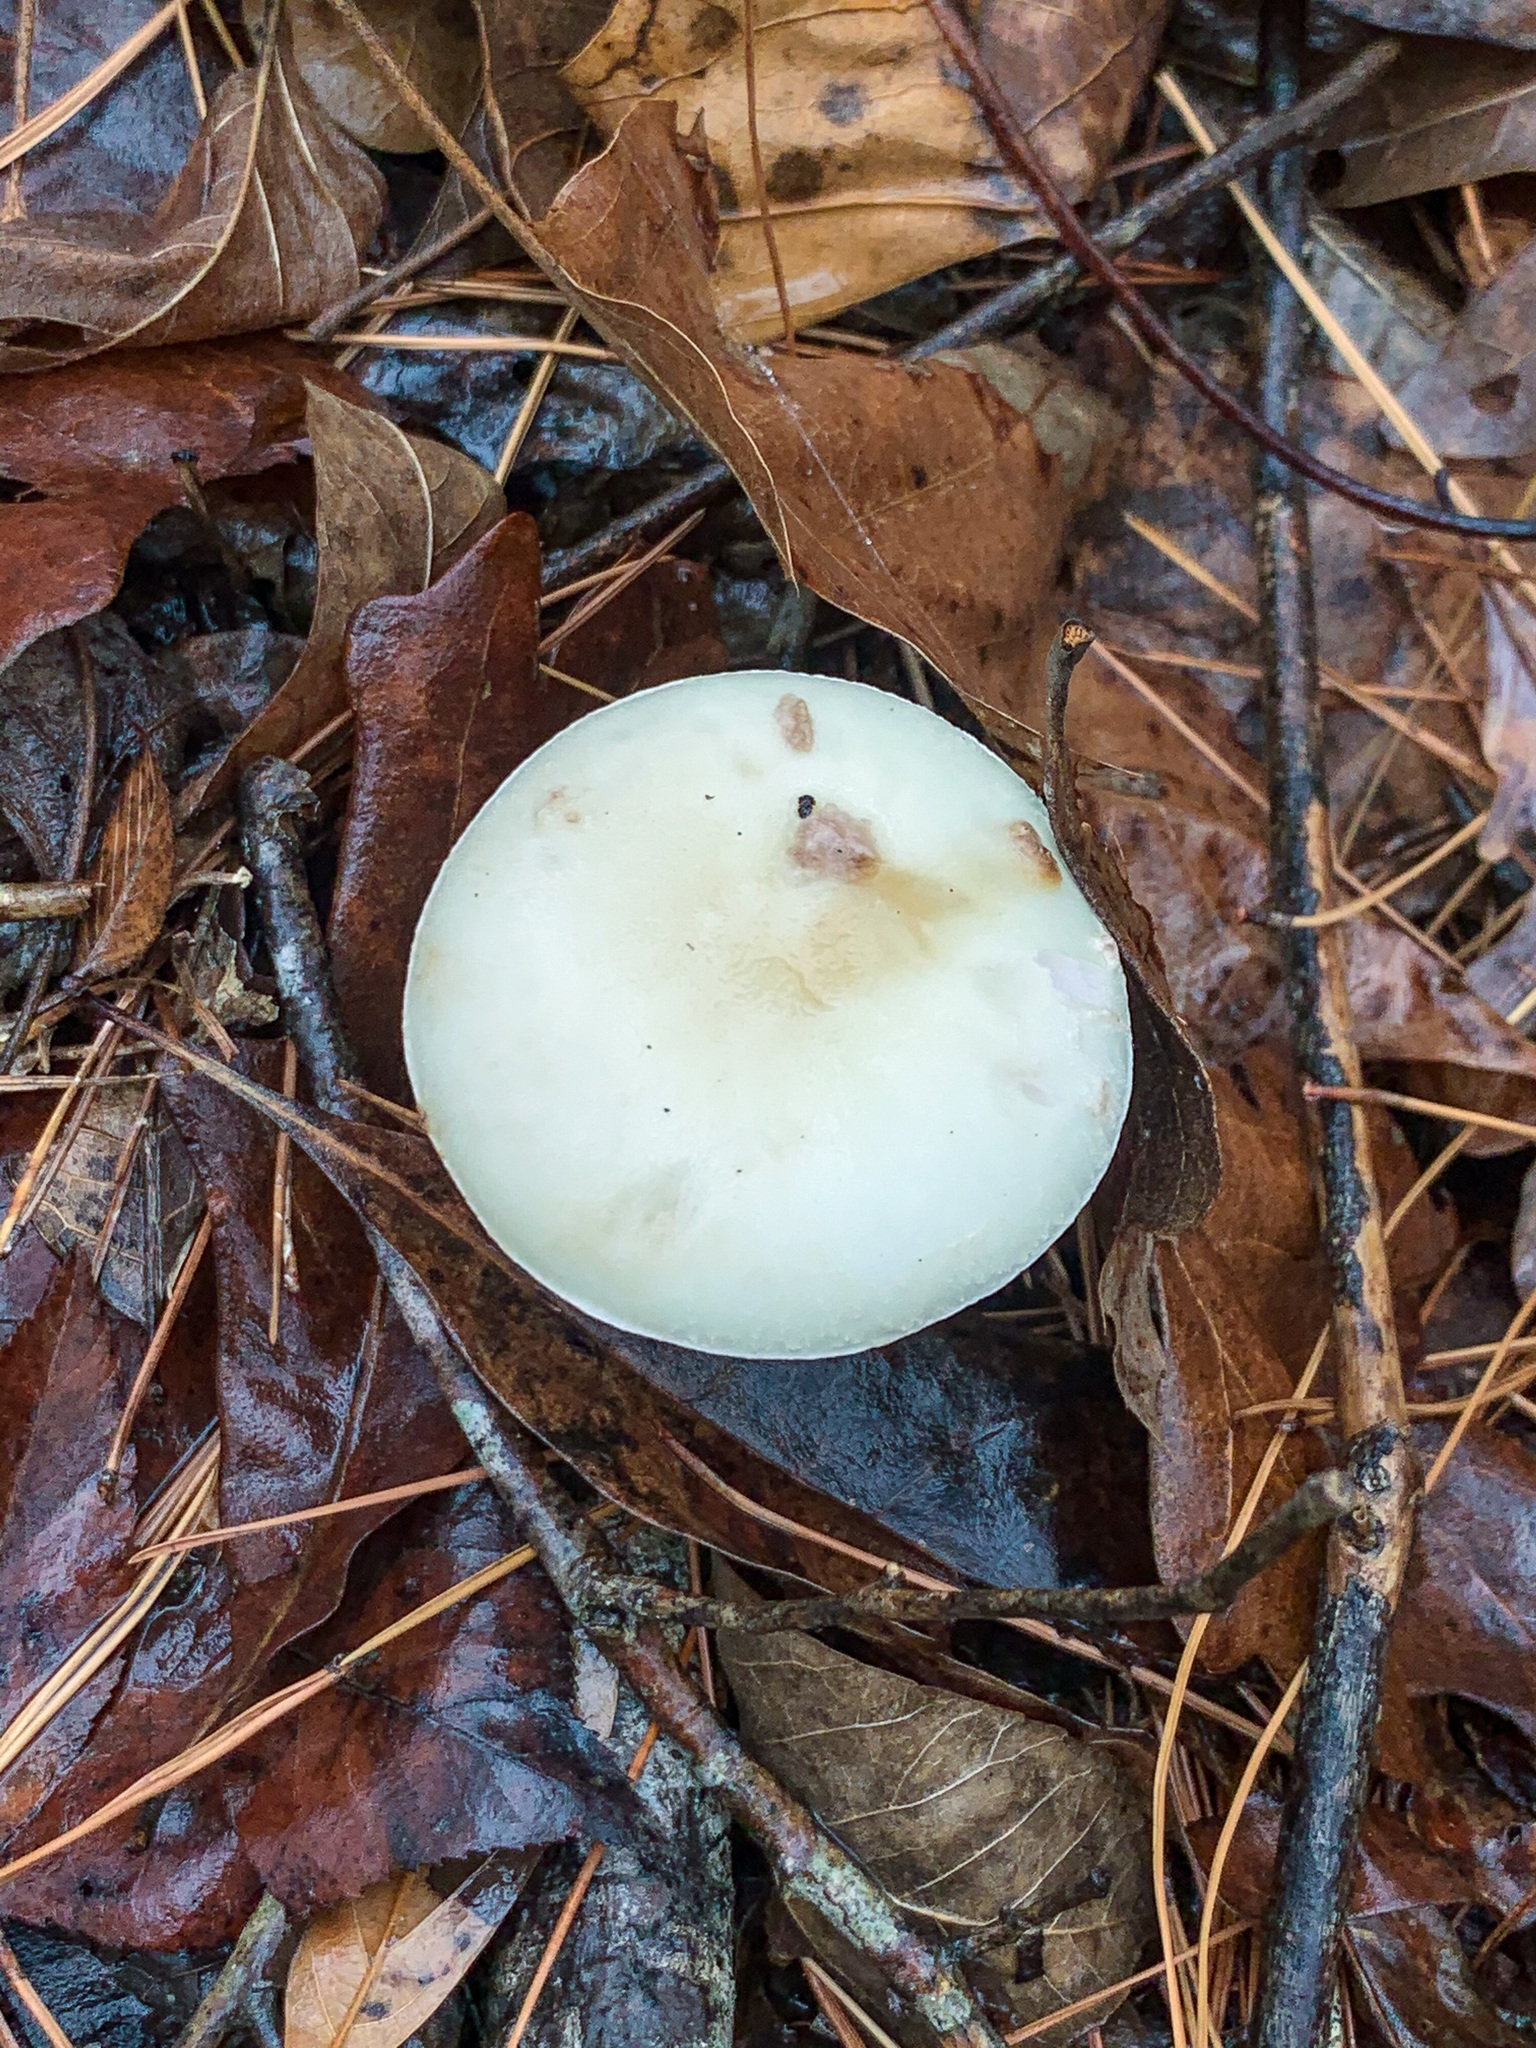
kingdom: Fungi
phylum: Basidiomycota
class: Agaricomycetes
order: Agaricales
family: Amanitaceae
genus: Amanita
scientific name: Amanita lavendula
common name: Coker's lavender staining amanita
